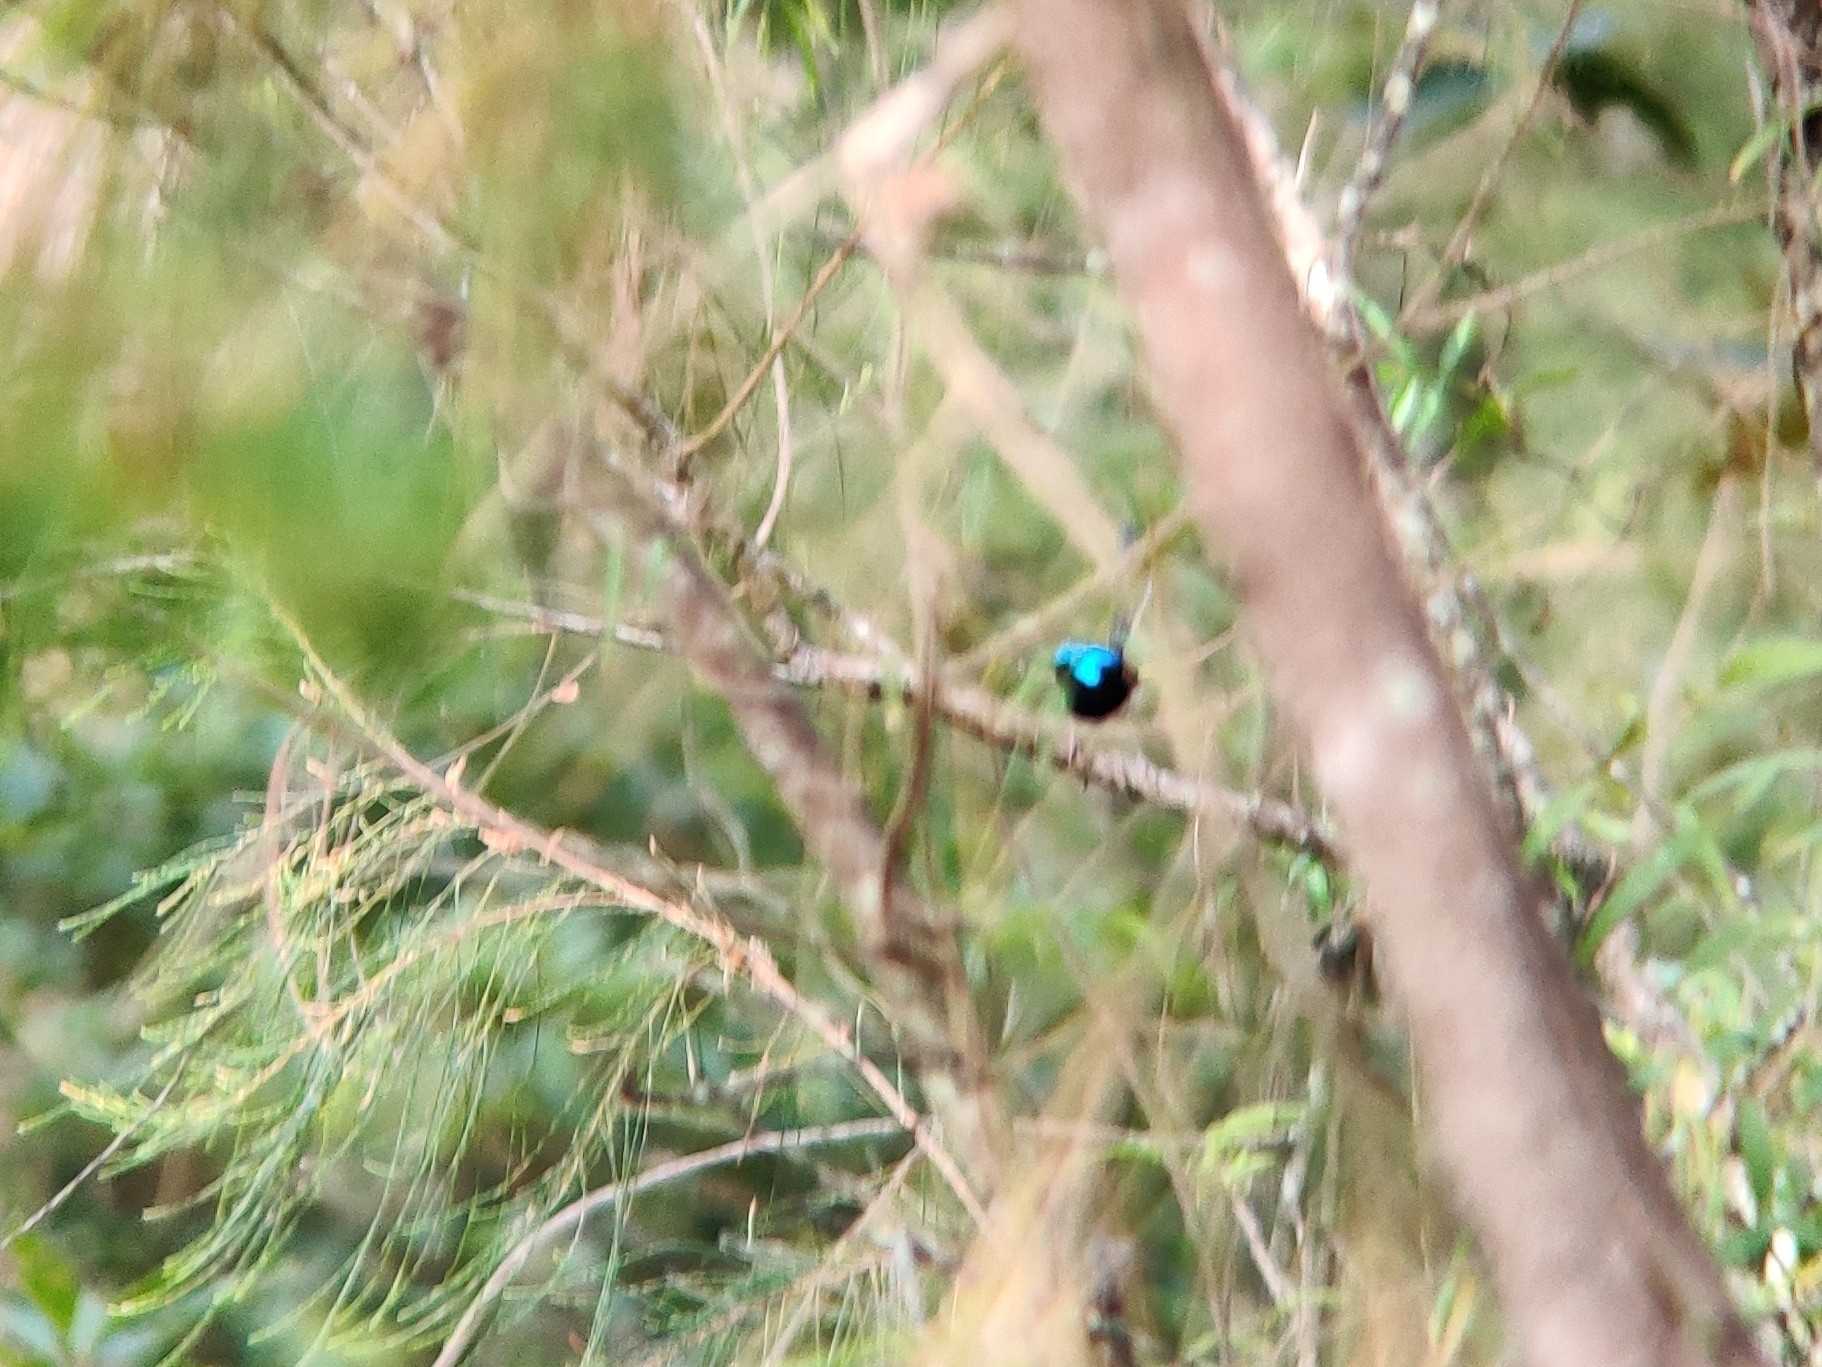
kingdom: Animalia
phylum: Chordata
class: Aves
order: Passeriformes
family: Maluridae
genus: Malurus
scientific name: Malurus lamberti
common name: Variegated fairywren
